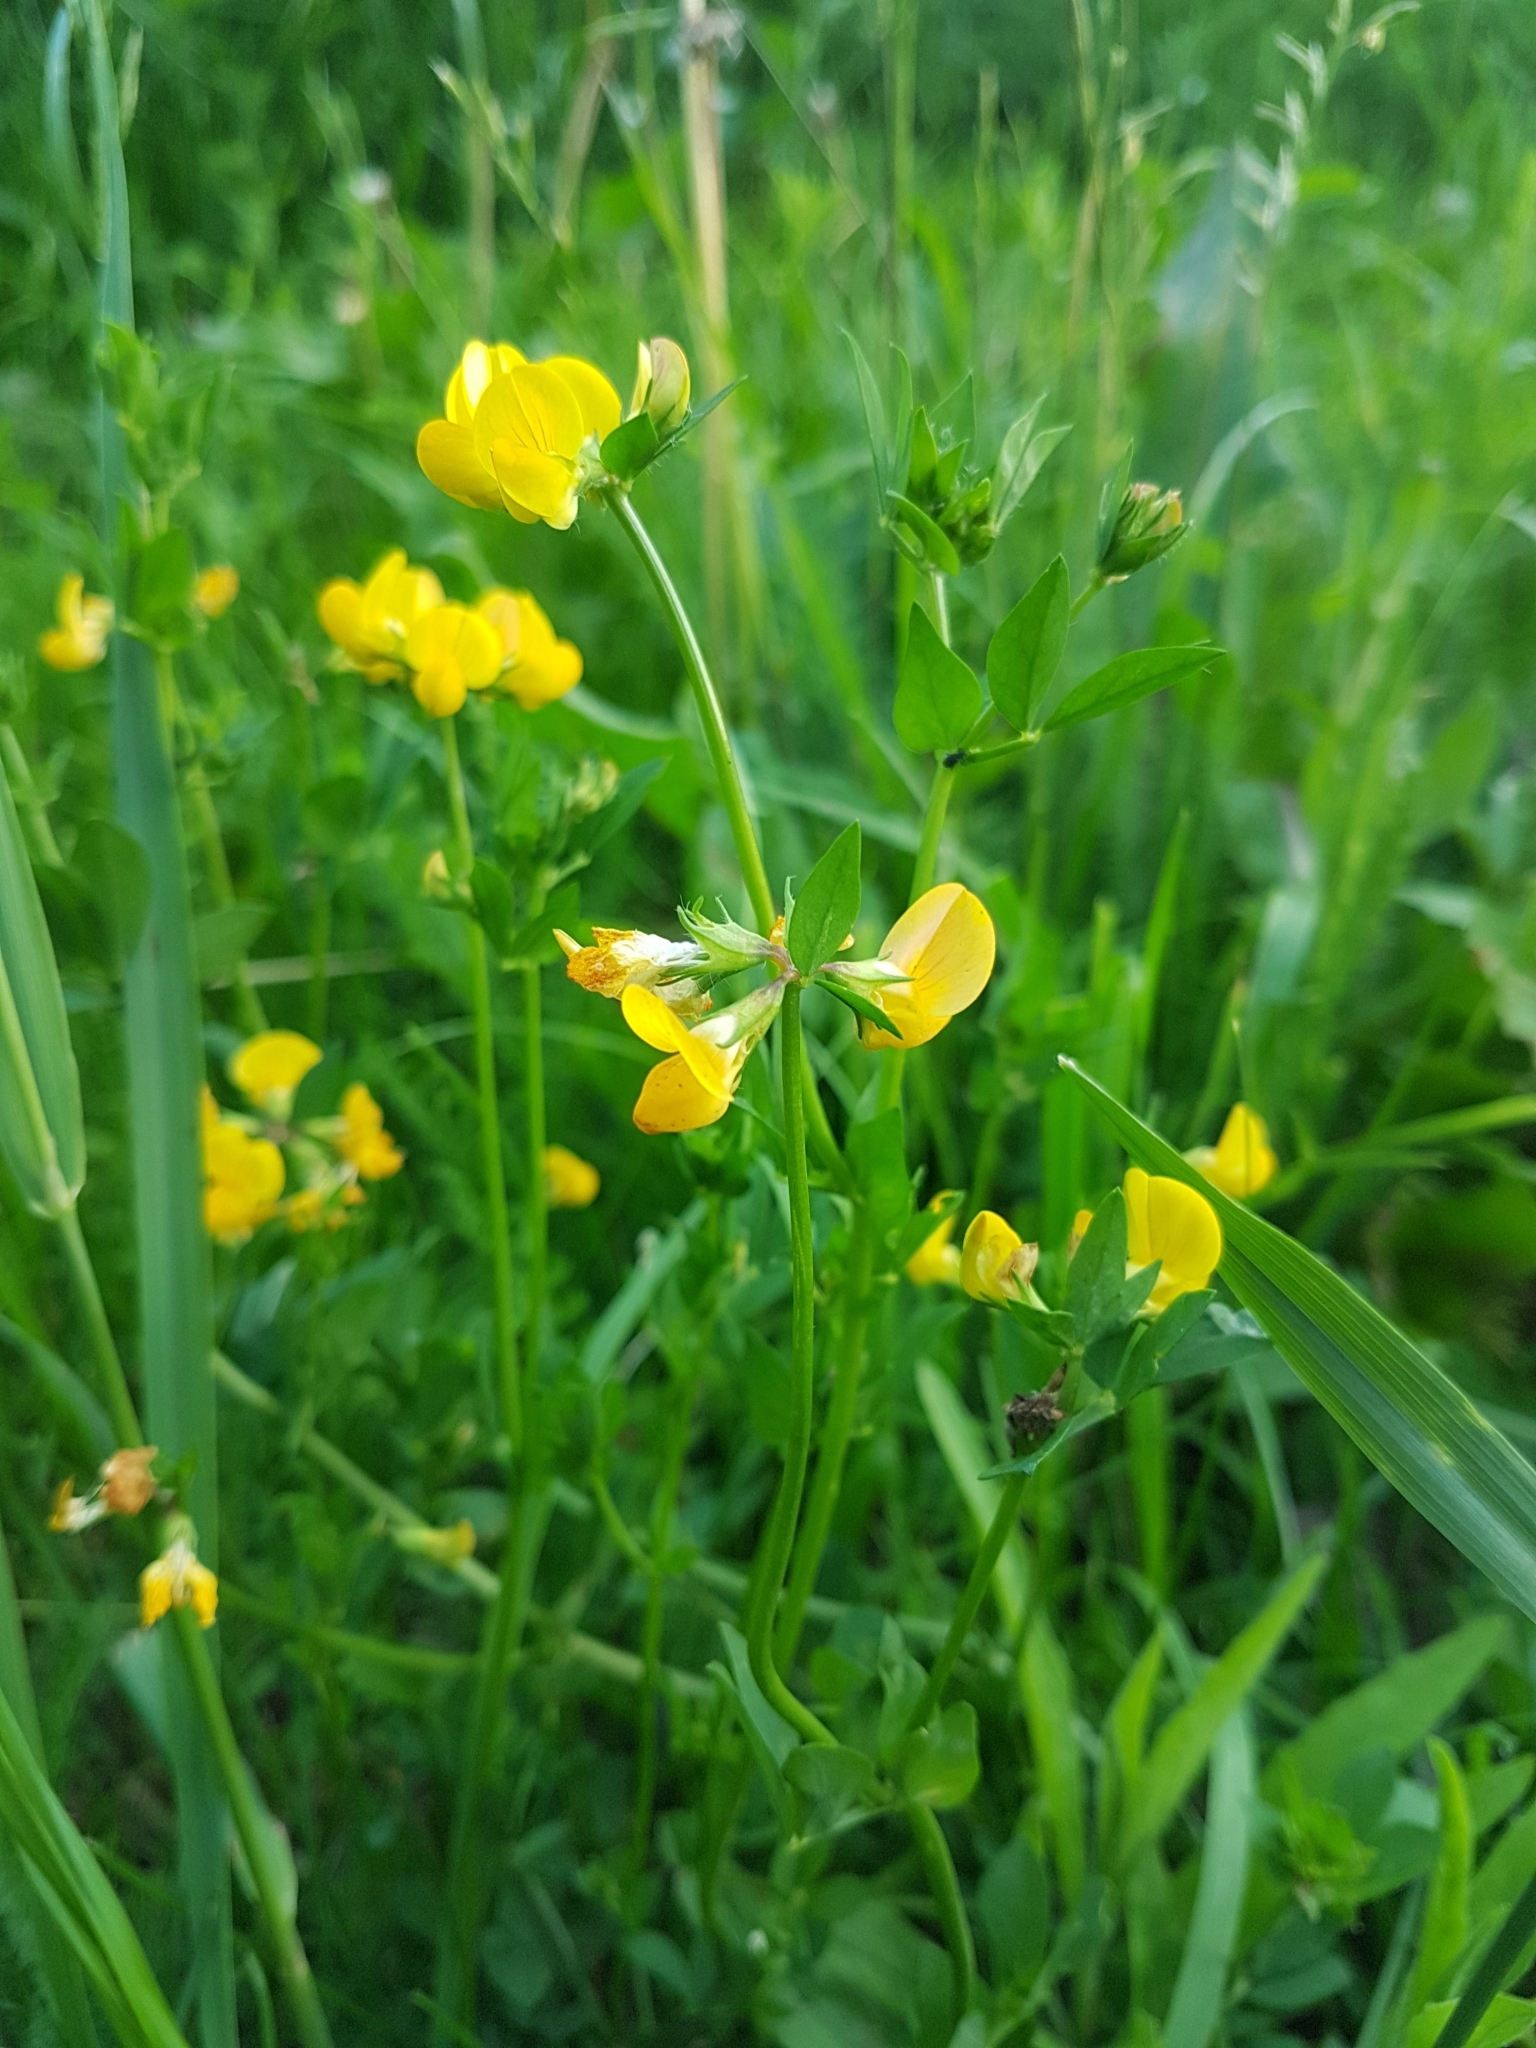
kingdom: Plantae
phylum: Tracheophyta
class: Magnoliopsida
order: Fabales
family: Fabaceae
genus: Lotus
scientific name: Lotus corniculatus
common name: Common bird's-foot-trefoil
